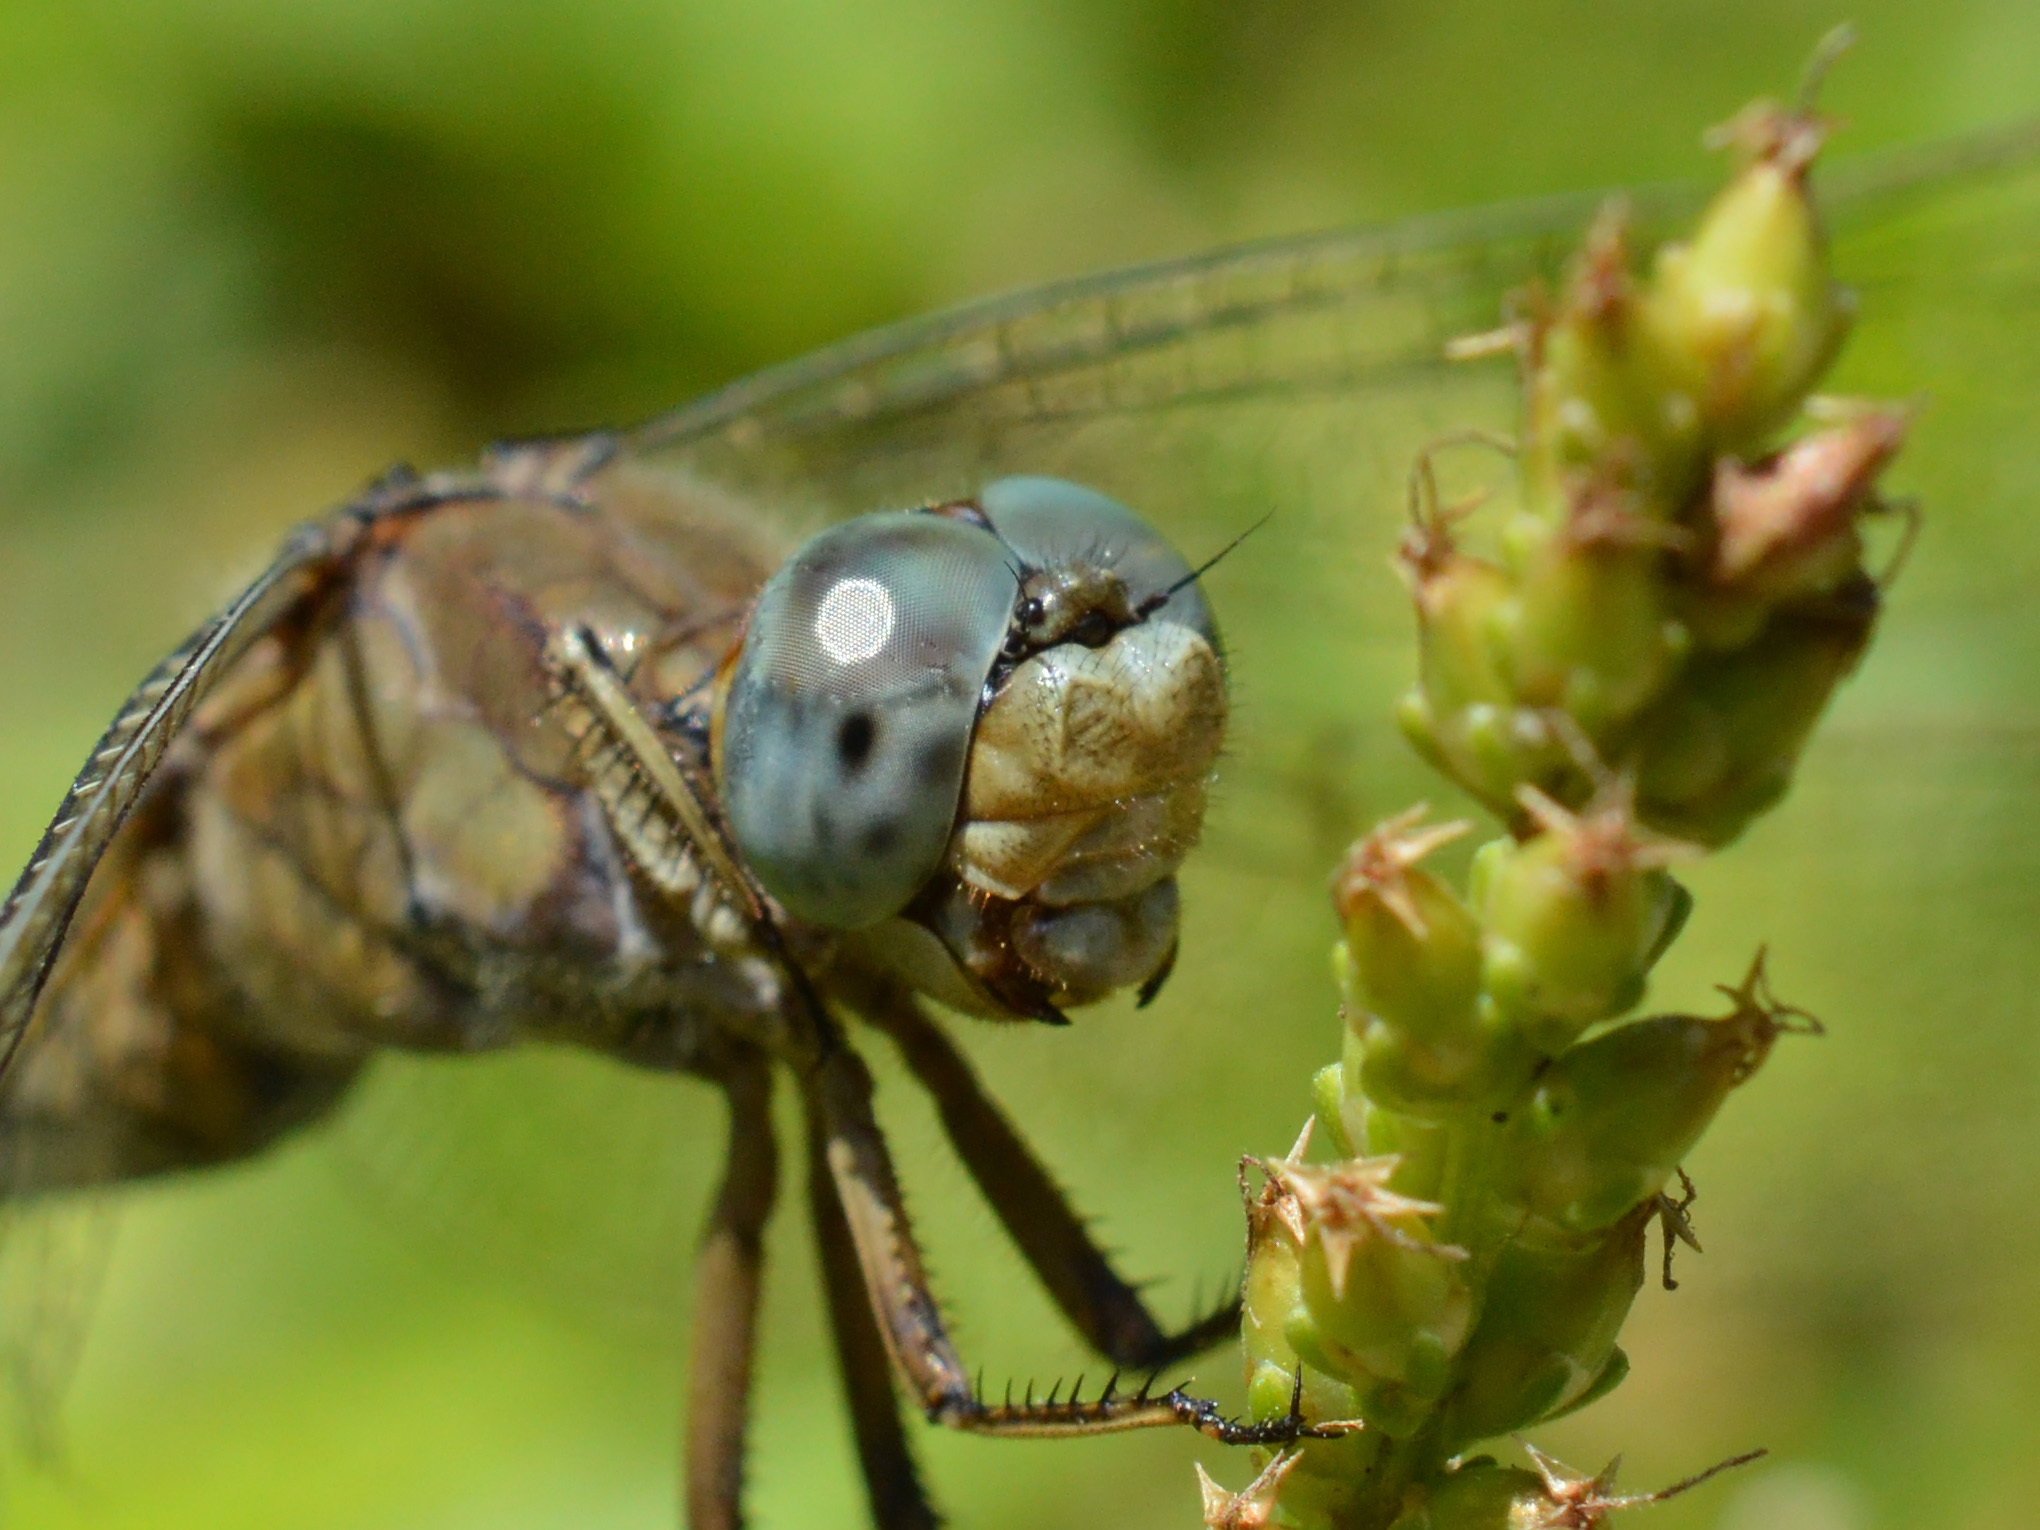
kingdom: Animalia
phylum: Arthropoda
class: Insecta
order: Odonata
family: Libellulidae
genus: Orthetrum
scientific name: Orthetrum coerulescens
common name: Keeled skimmer
